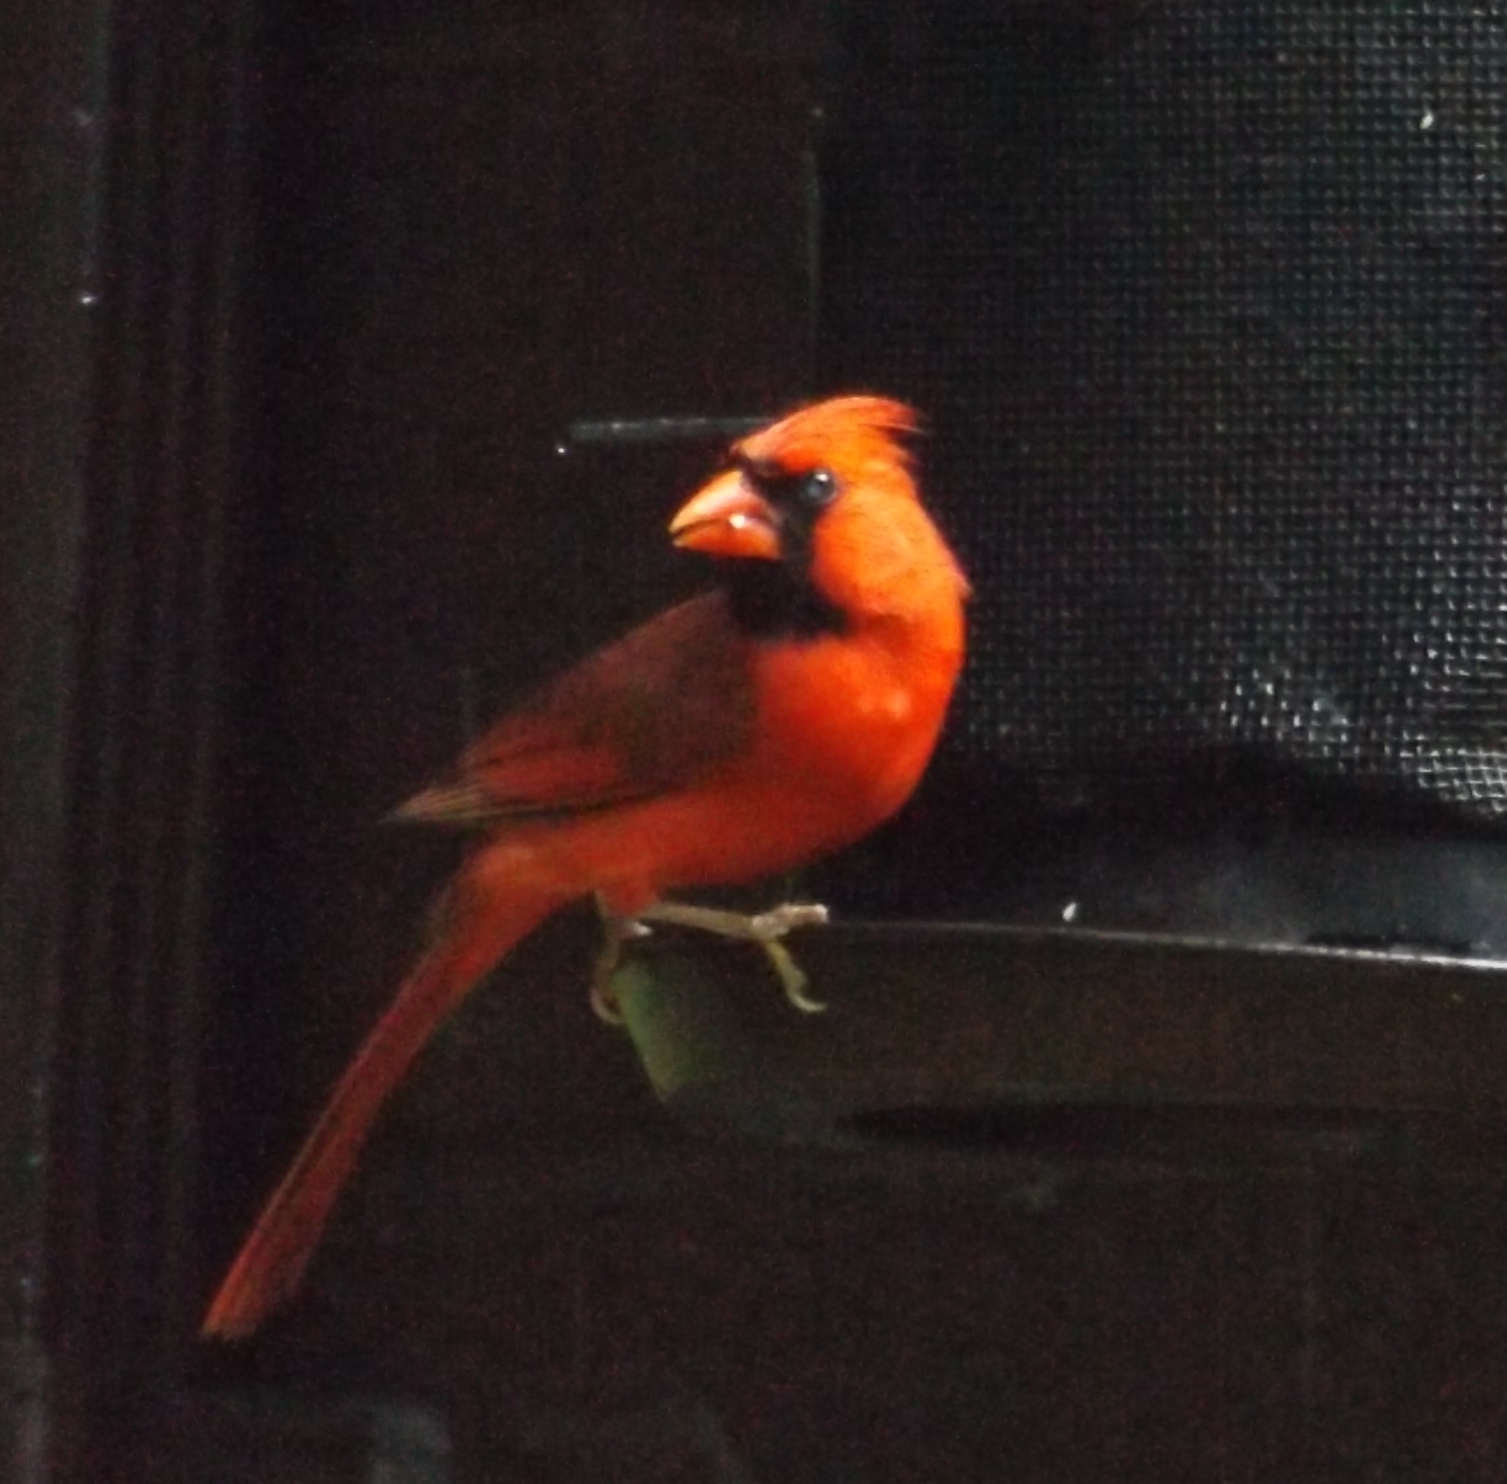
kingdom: Animalia
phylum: Chordata
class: Aves
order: Passeriformes
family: Cardinalidae
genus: Cardinalis
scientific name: Cardinalis cardinalis
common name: Northern cardinal
